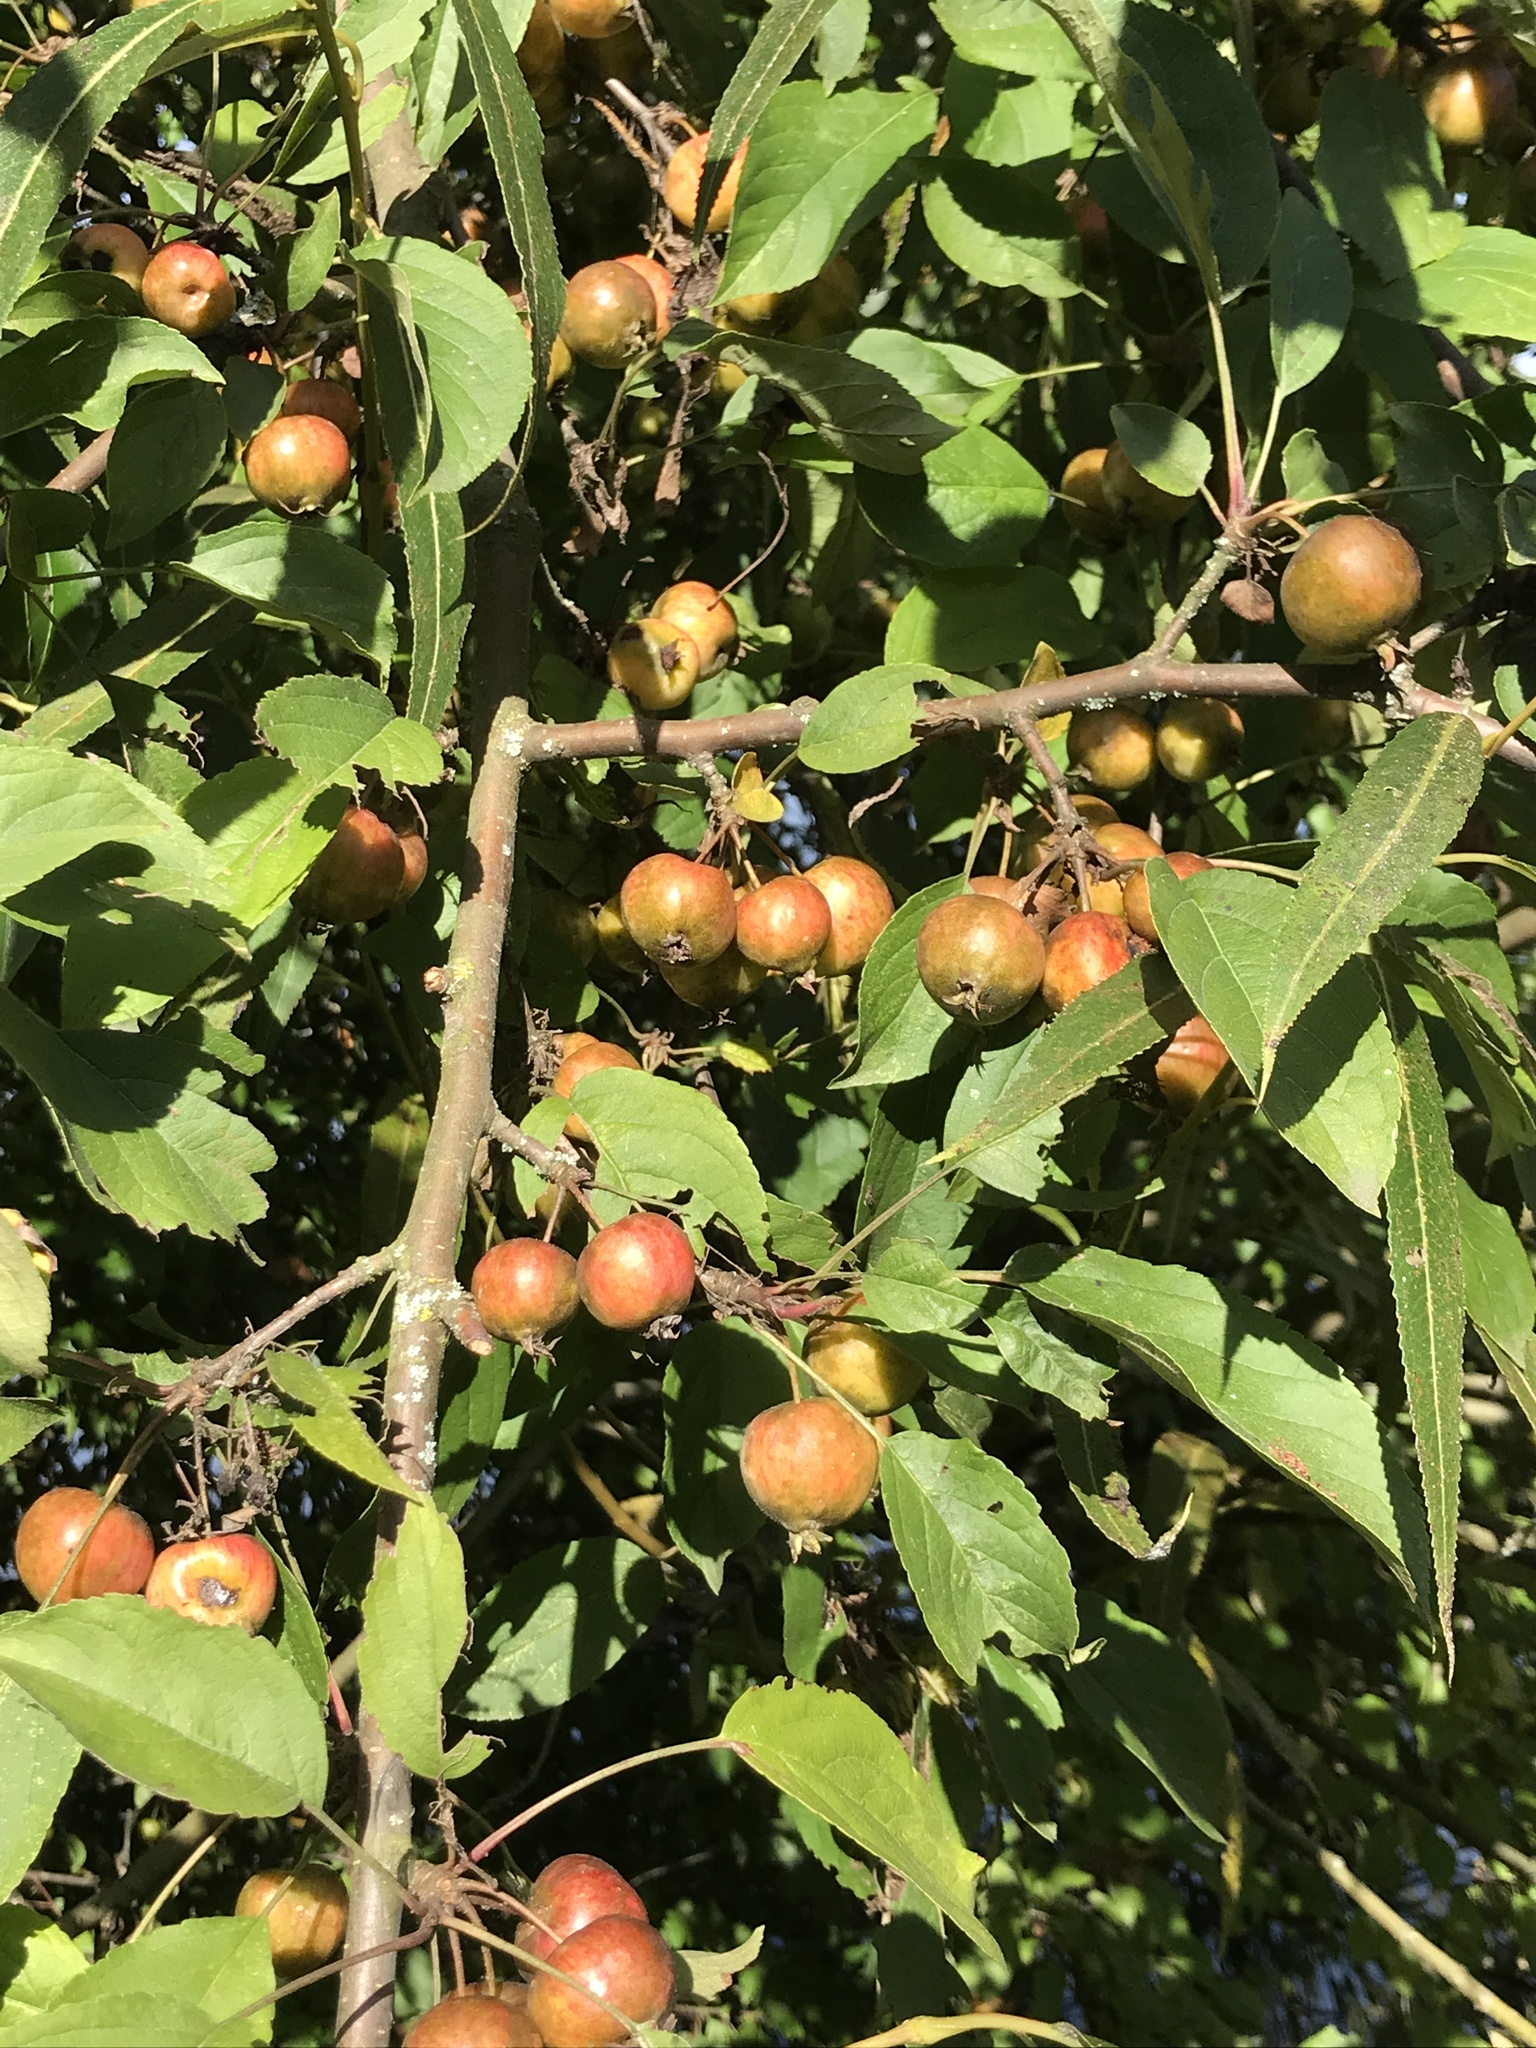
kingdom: Plantae
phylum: Tracheophyta
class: Magnoliopsida
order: Rosales
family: Rosaceae
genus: Malus
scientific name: Malus prunifolia
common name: Chinese apple
